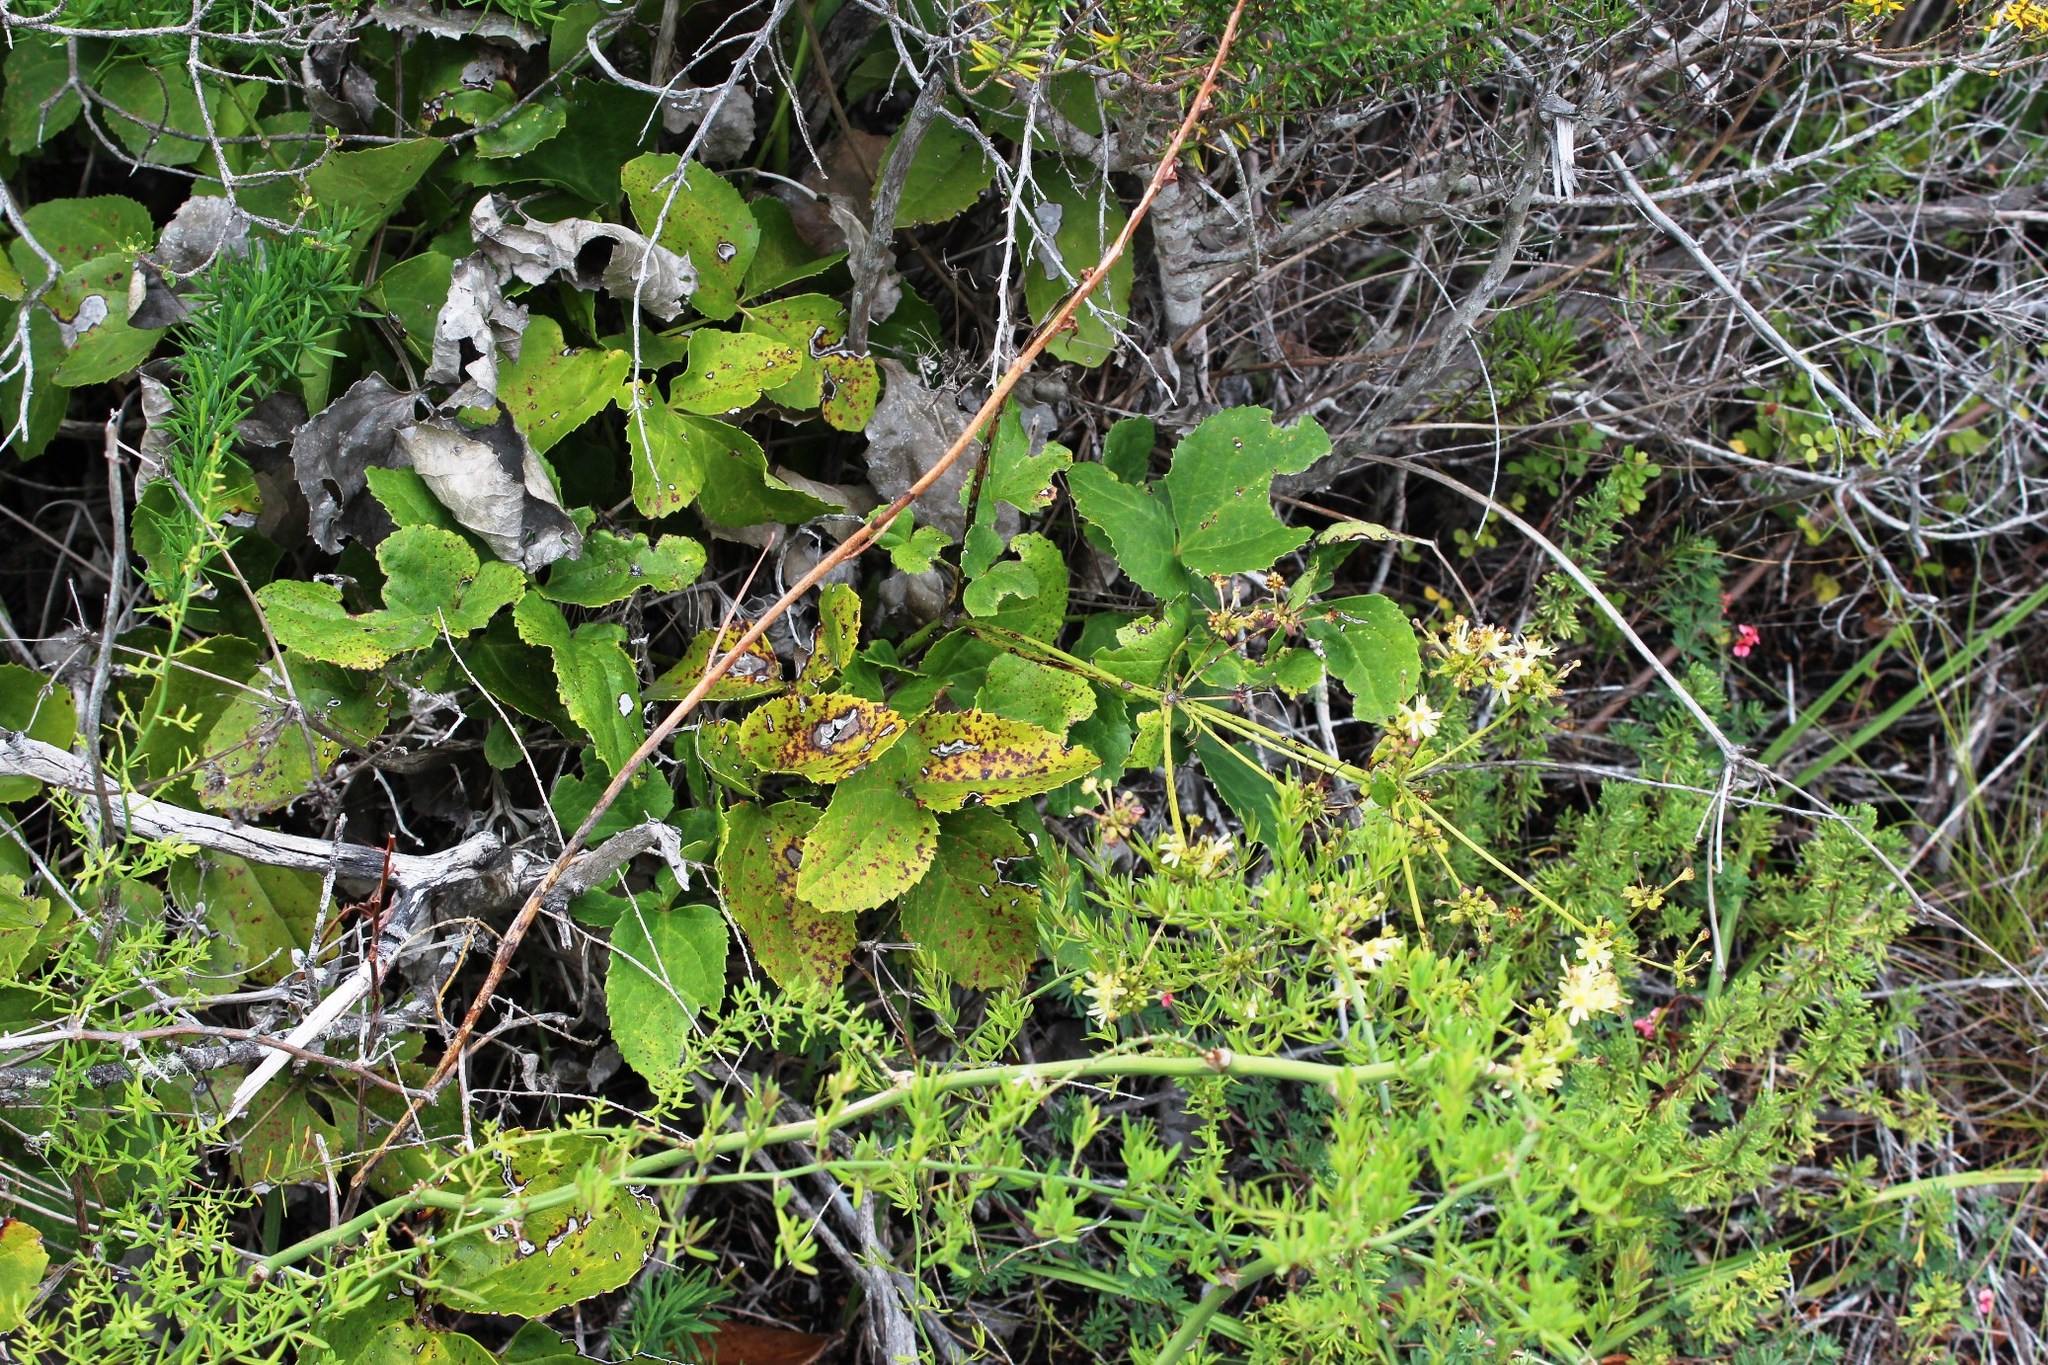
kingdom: Plantae
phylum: Tracheophyta
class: Magnoliopsida
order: Ranunculales
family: Ranunculaceae
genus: Knowltonia
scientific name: Knowltonia vesicatoria
